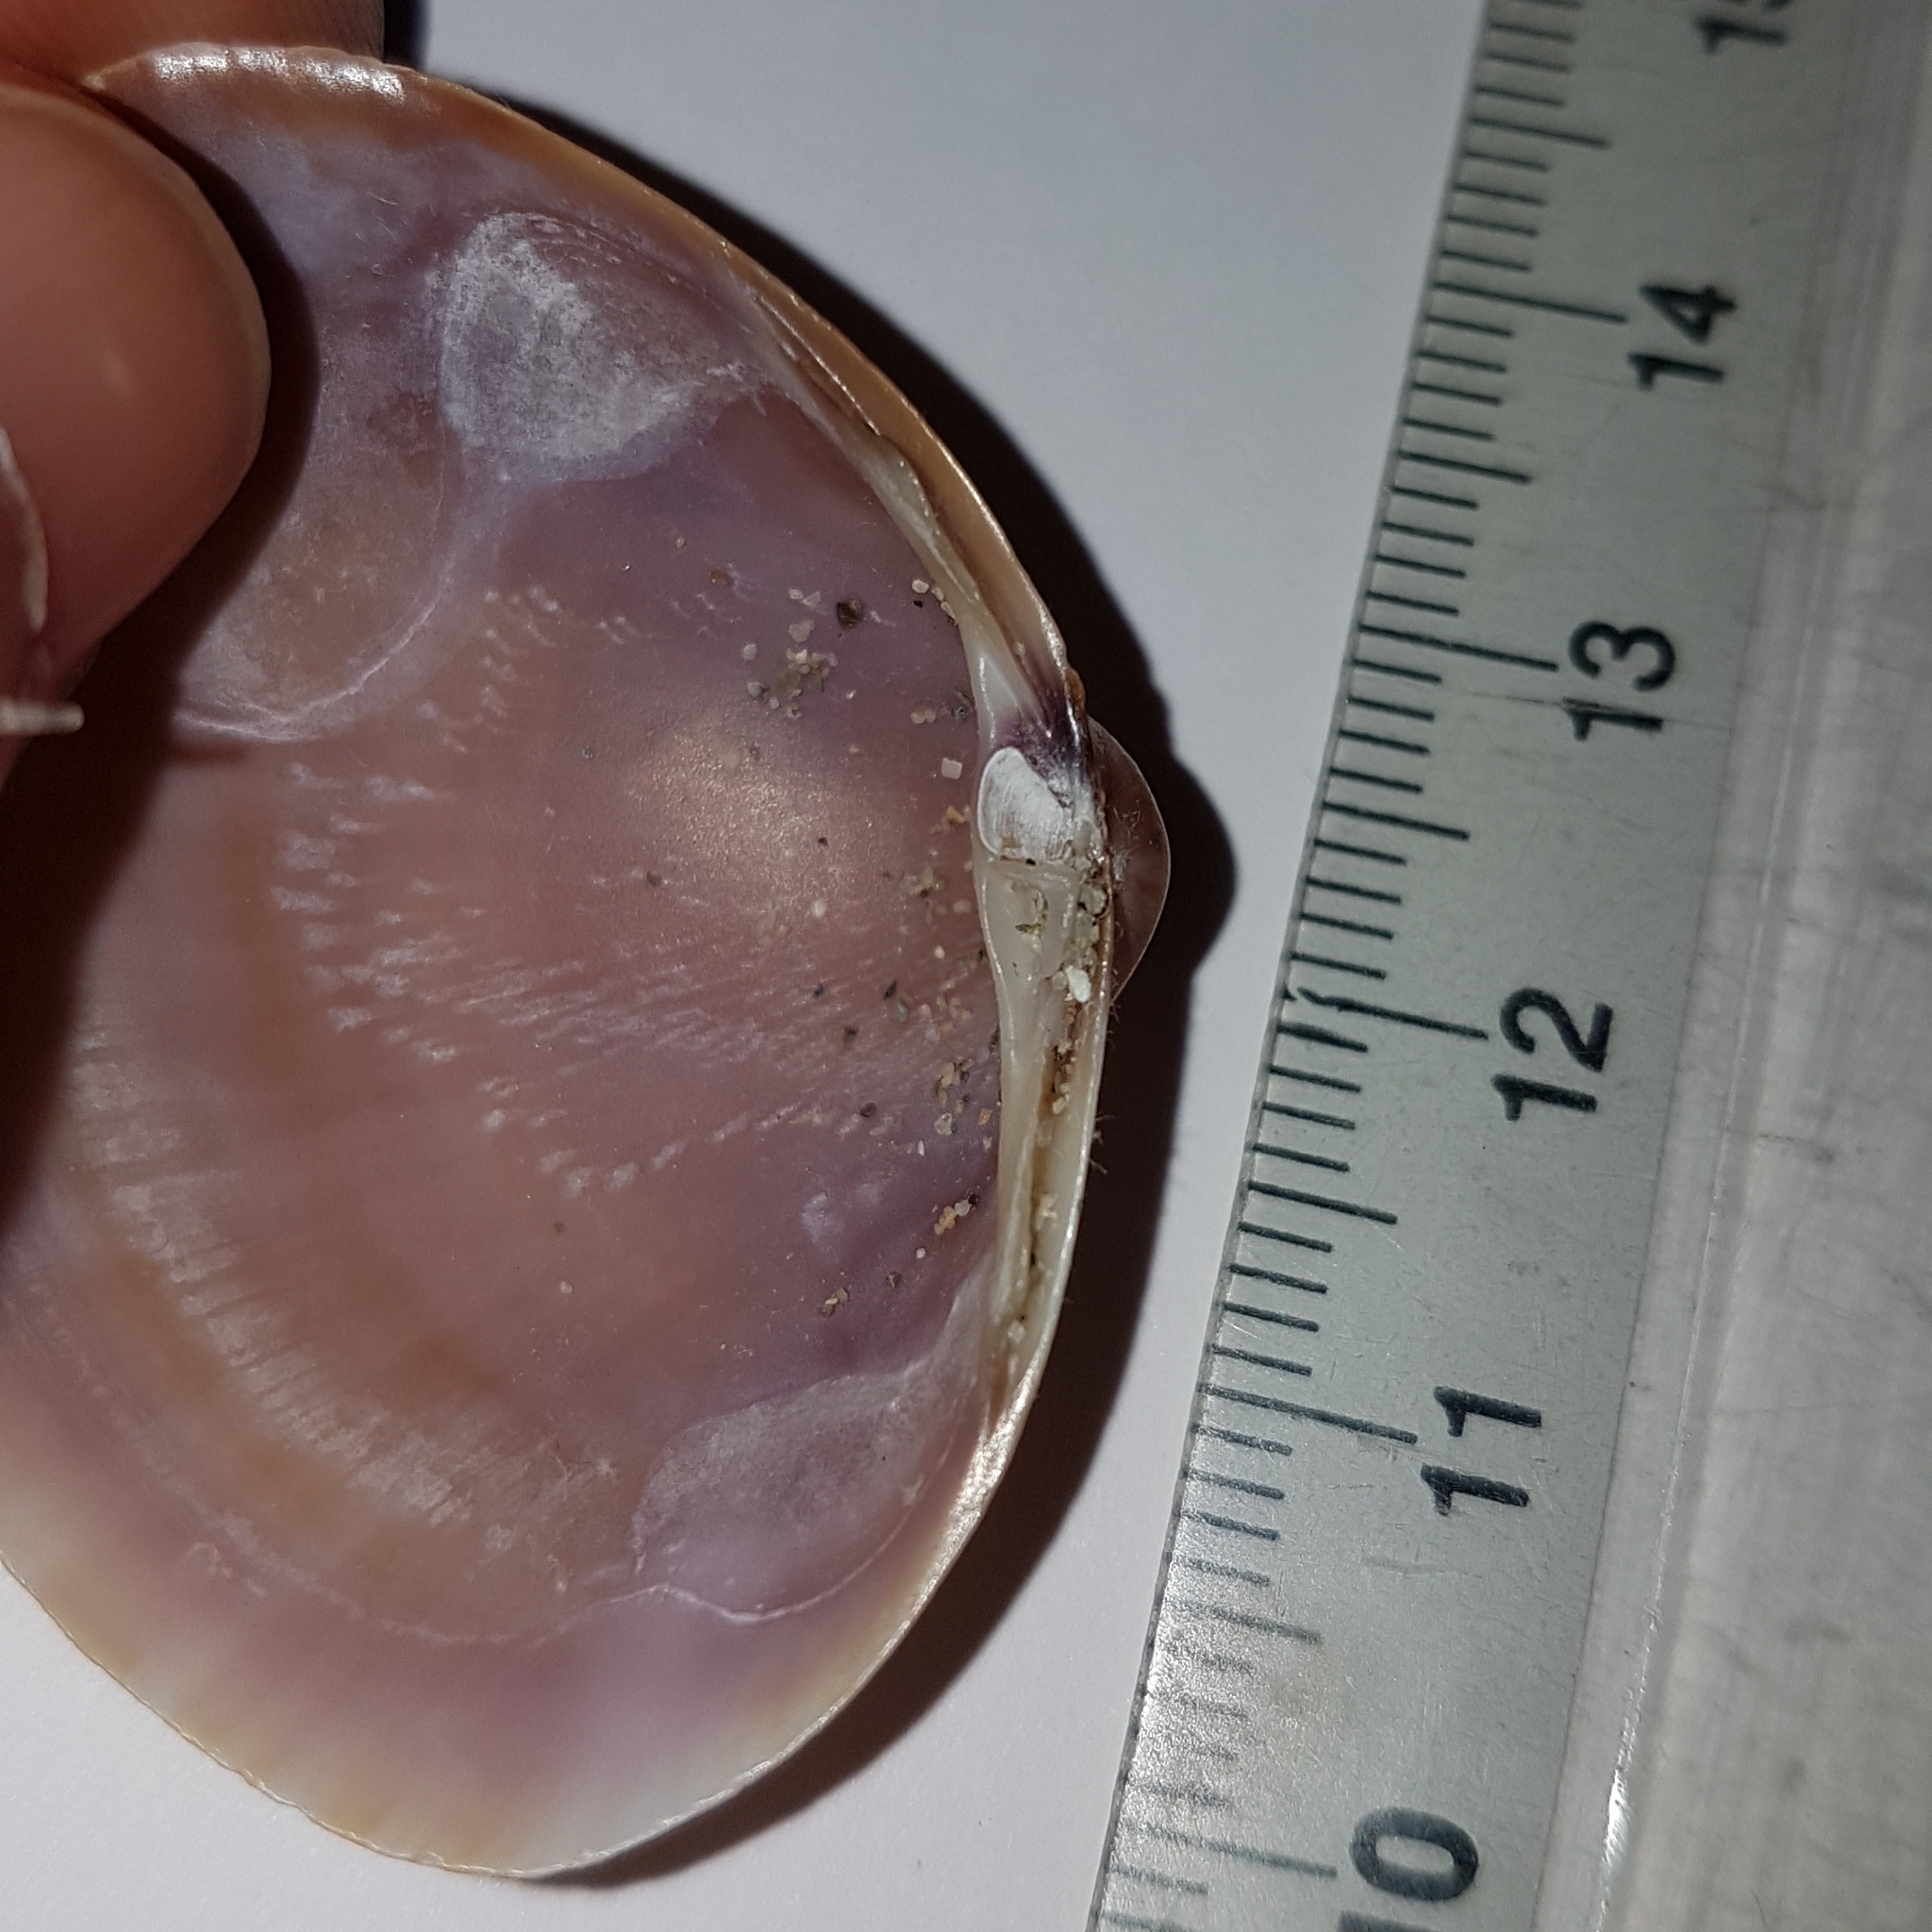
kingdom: Animalia
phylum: Mollusca
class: Bivalvia
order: Venerida
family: Mactridae
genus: Mactra
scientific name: Mactra stultorum
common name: Rayed trough shell
